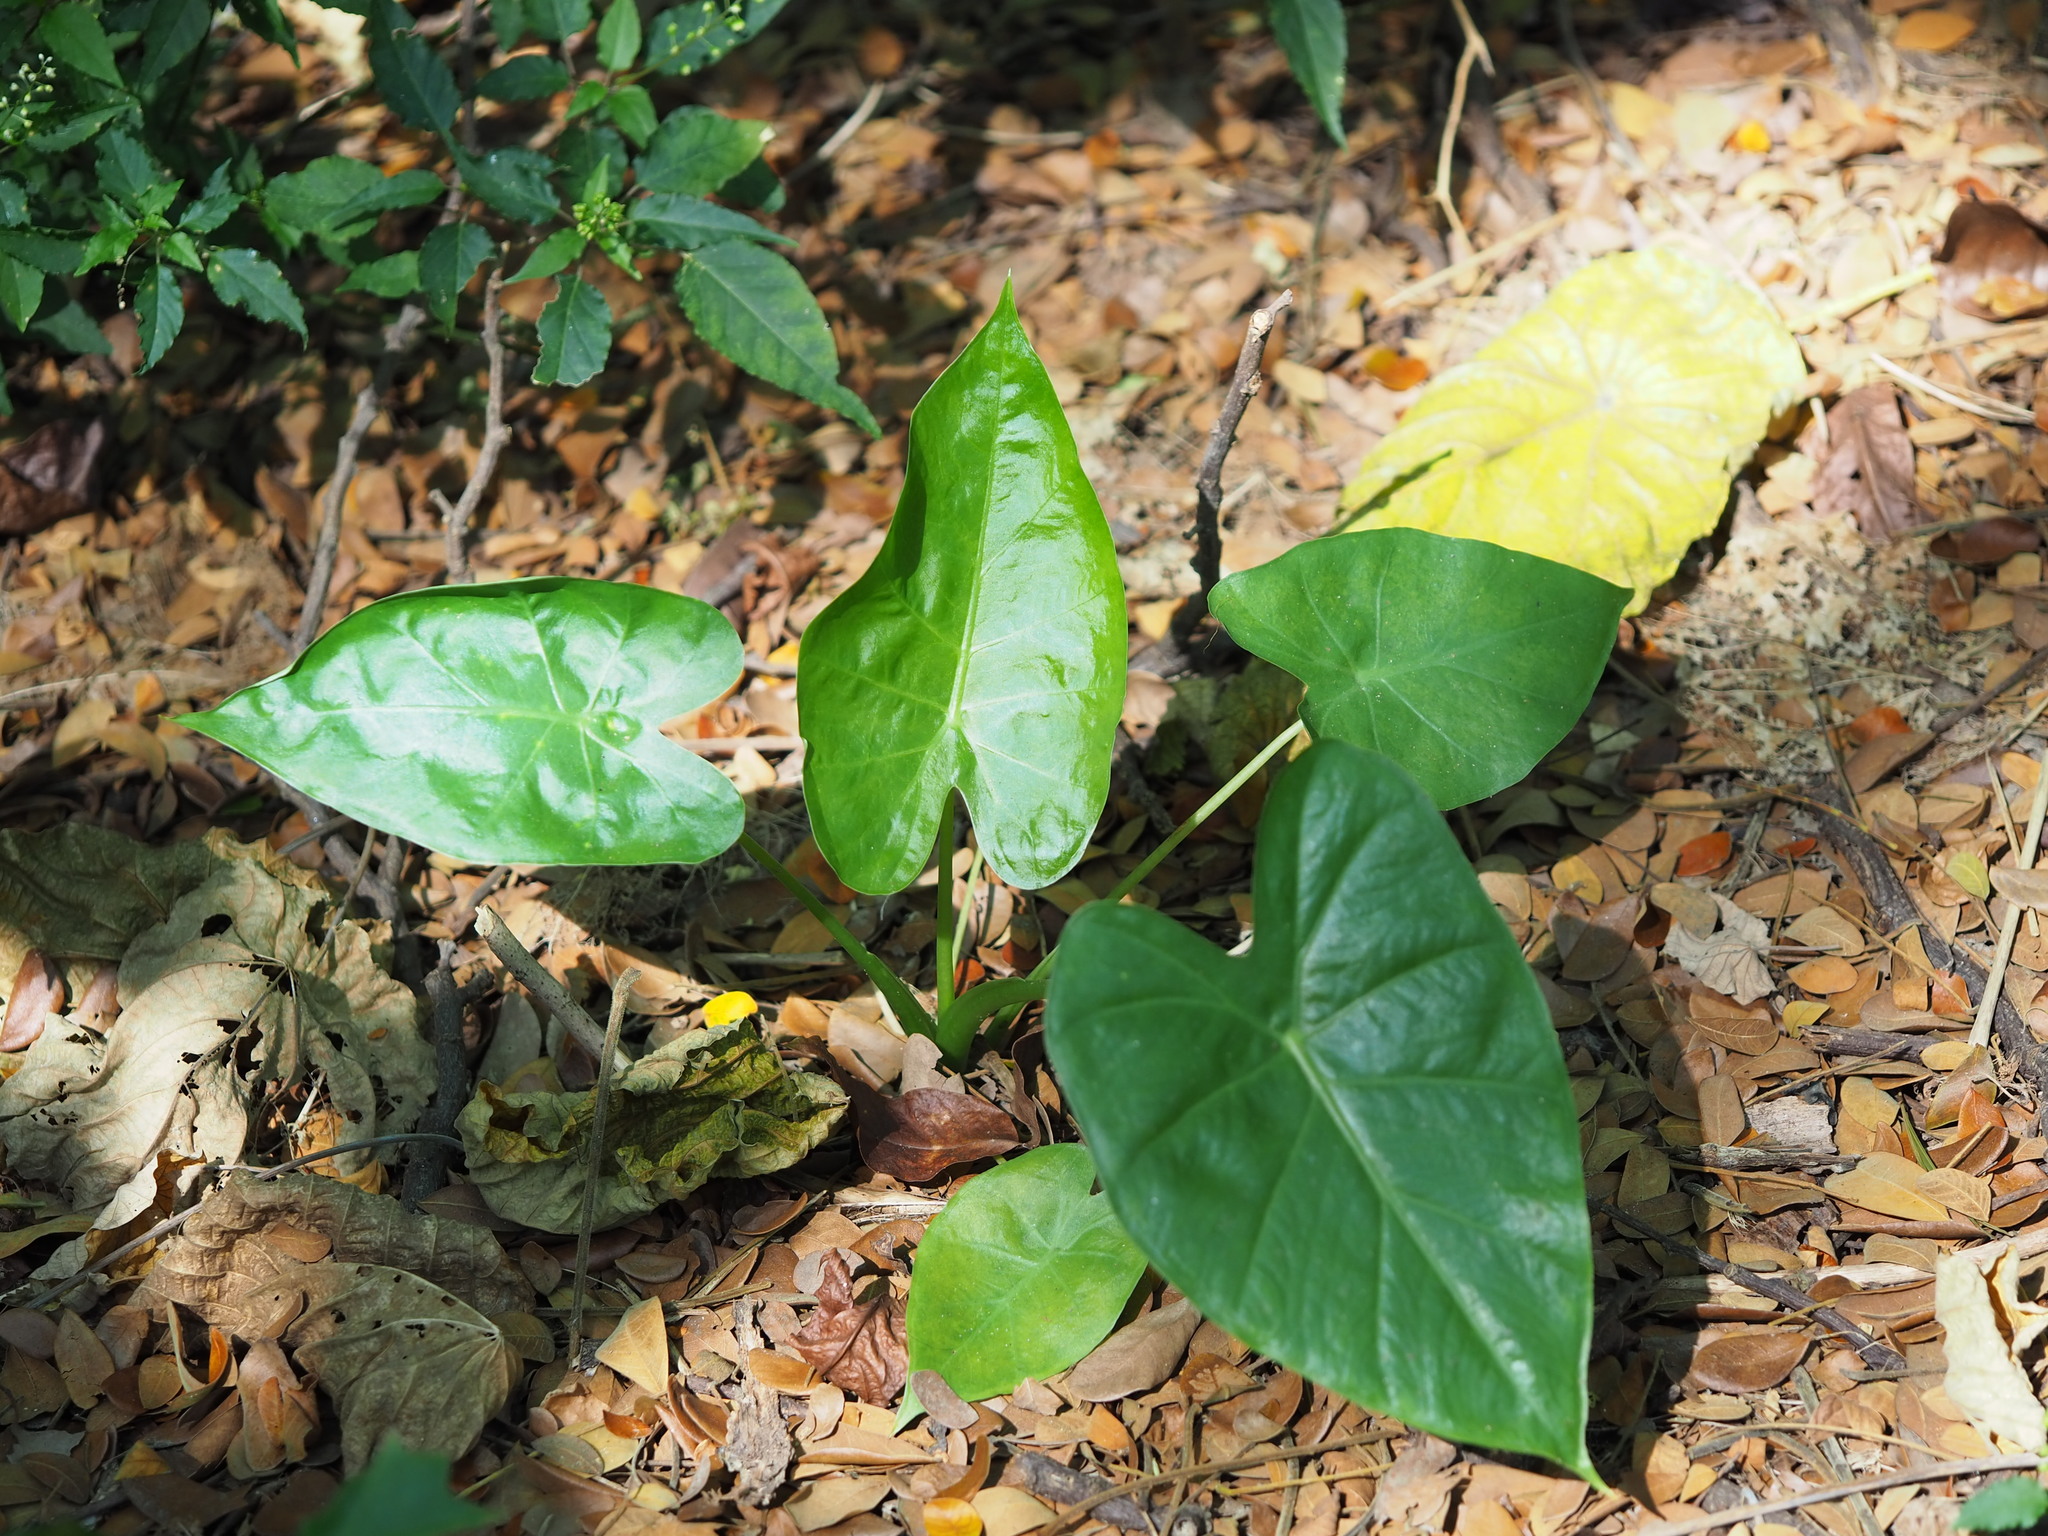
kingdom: Plantae
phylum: Tracheophyta
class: Liliopsida
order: Alismatales
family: Araceae
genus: Alocasia
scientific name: Alocasia odora
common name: Asian taro
